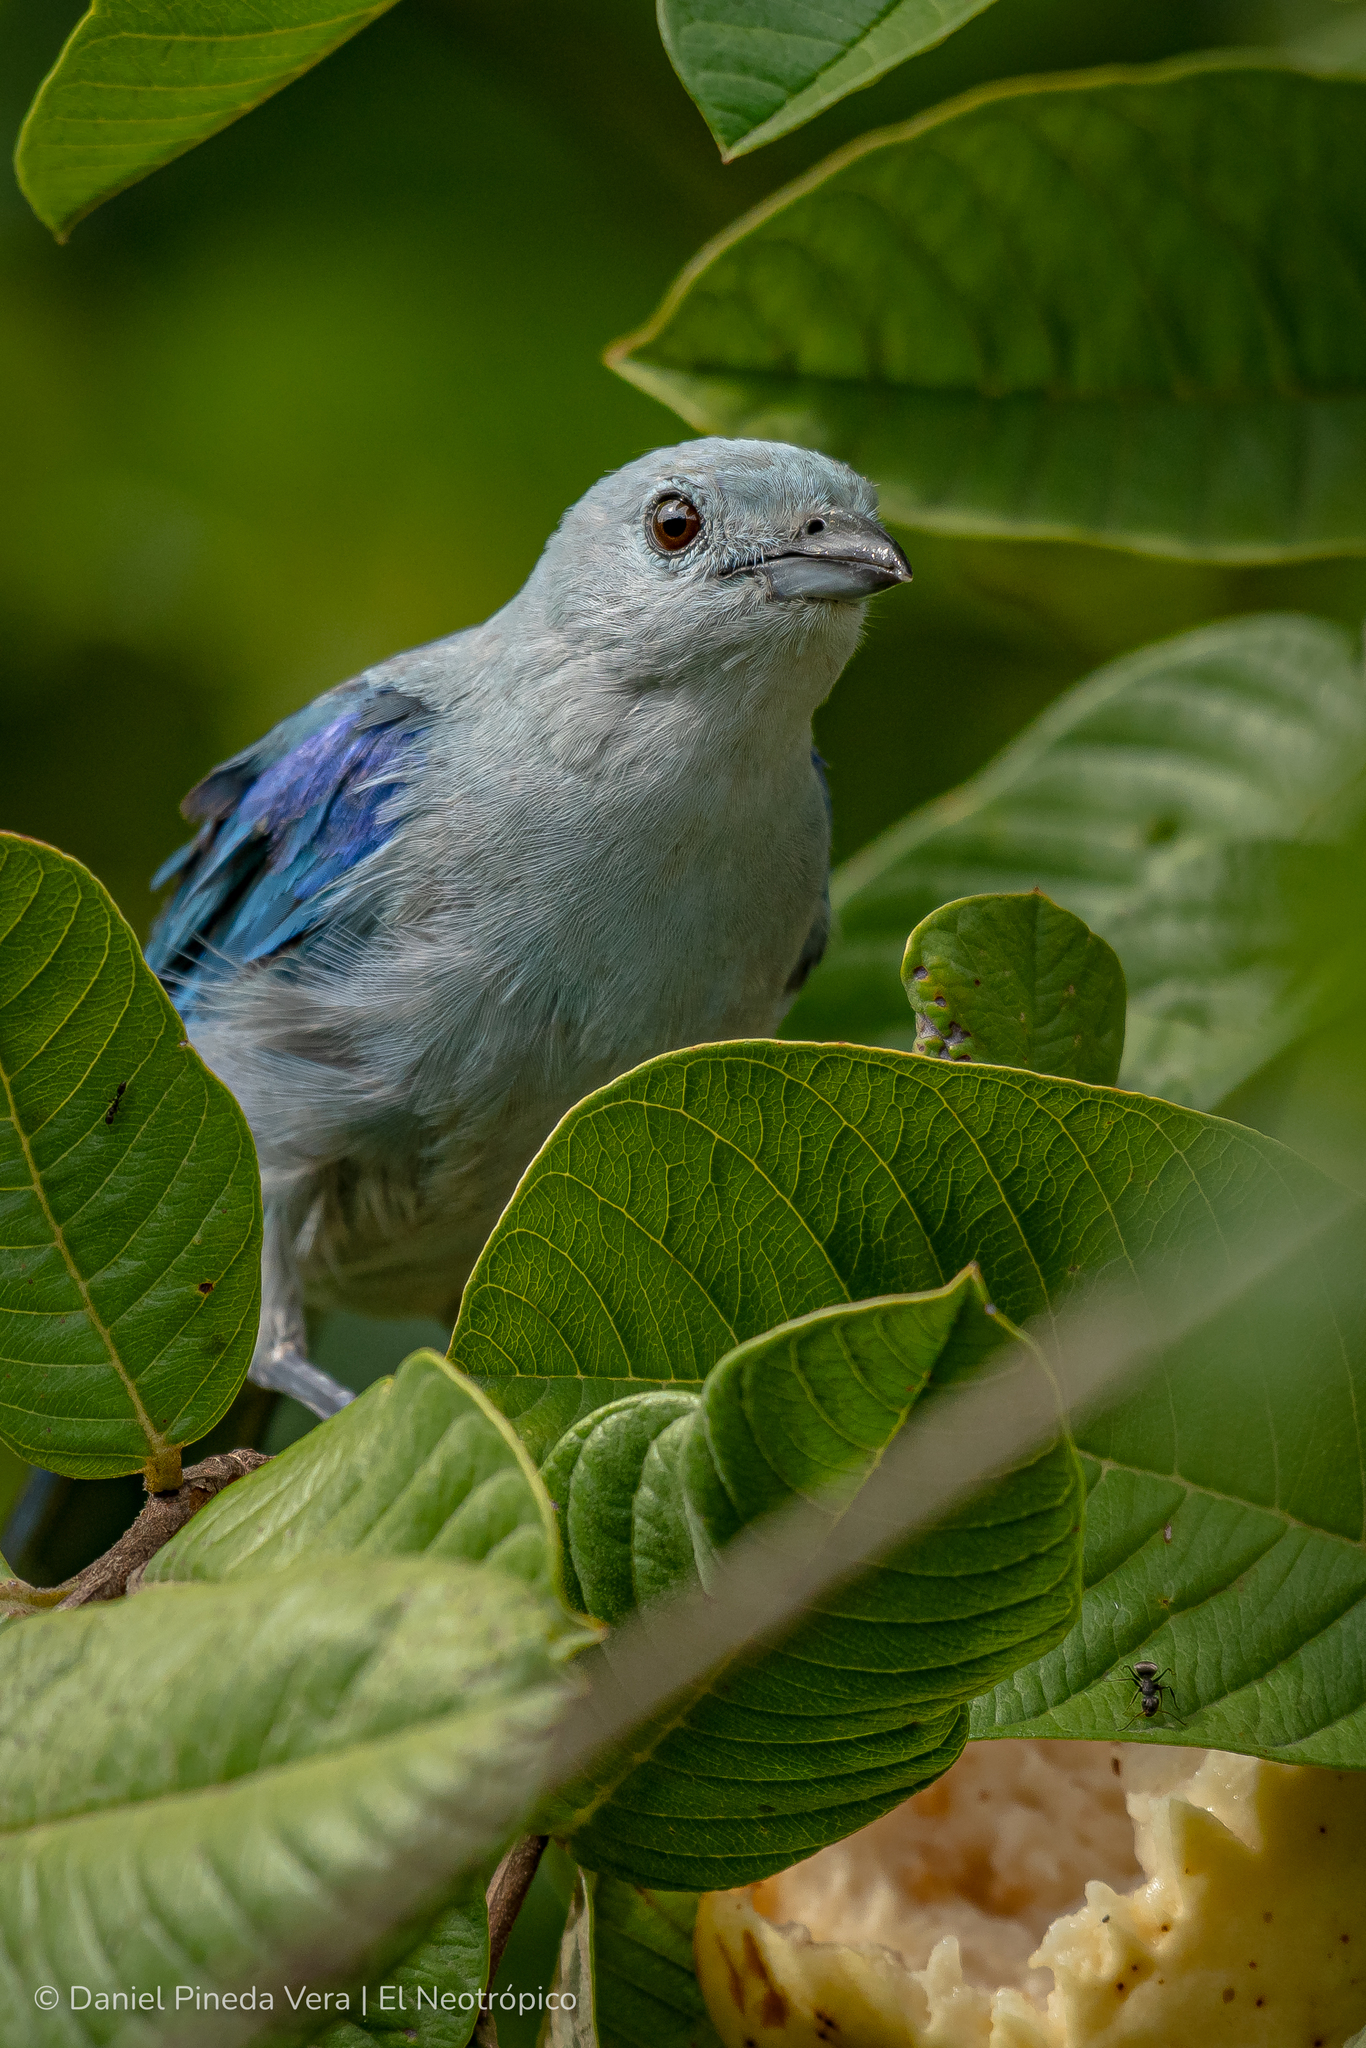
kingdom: Animalia
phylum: Chordata
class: Aves
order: Passeriformes
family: Thraupidae
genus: Thraupis
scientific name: Thraupis episcopus
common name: Blue-grey tanager
